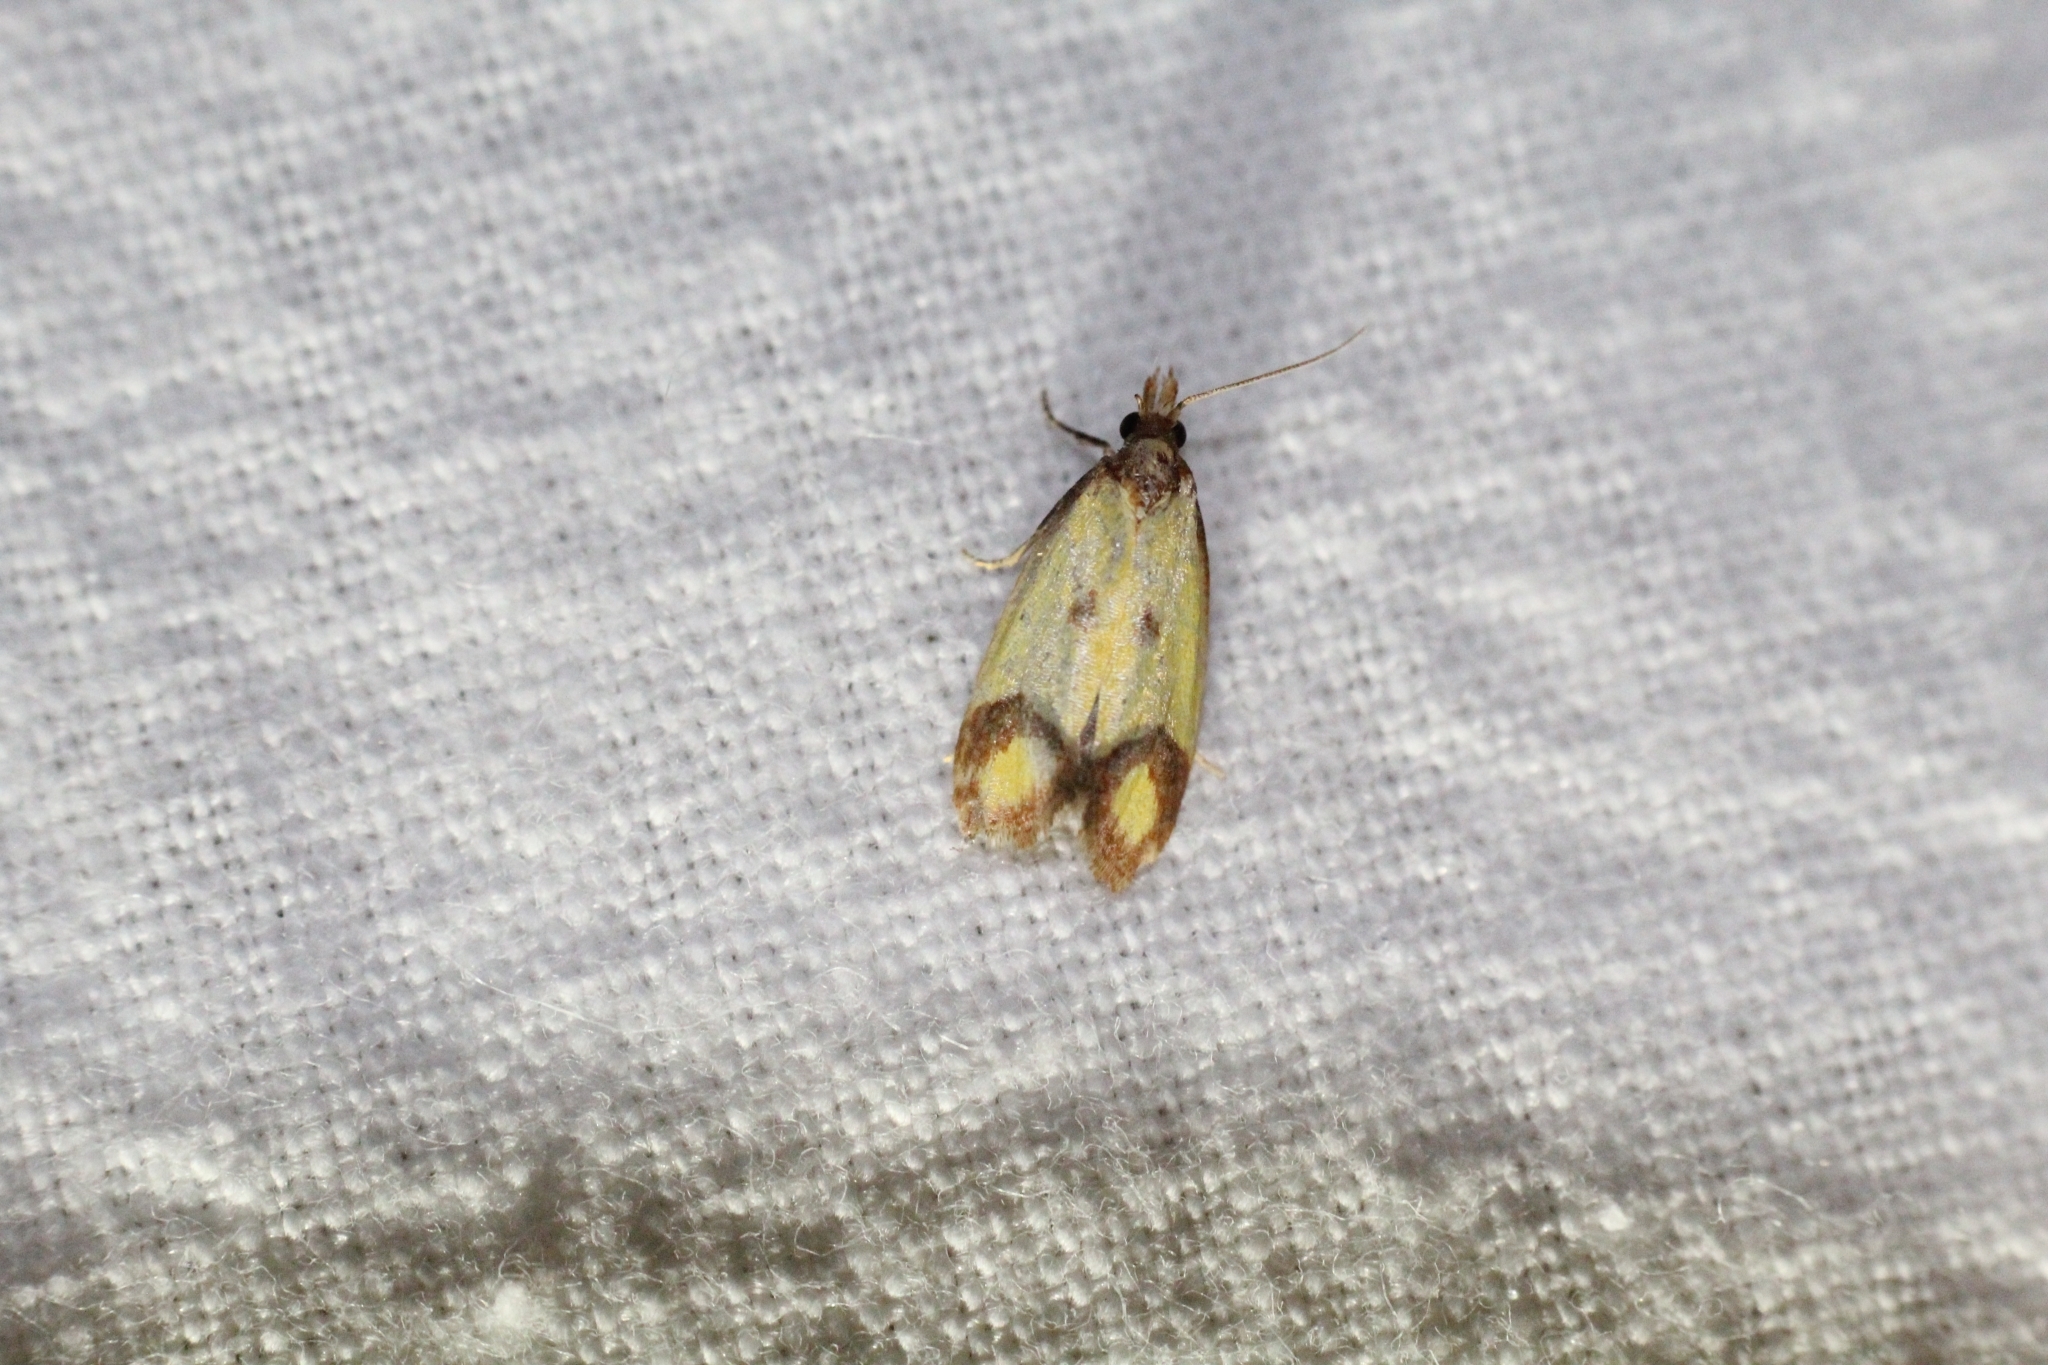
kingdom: Animalia
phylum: Arthropoda
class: Insecta
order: Lepidoptera
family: Tortricidae
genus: Agapeta
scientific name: Agapeta zoegana
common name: Sulfur knapweed root moth
